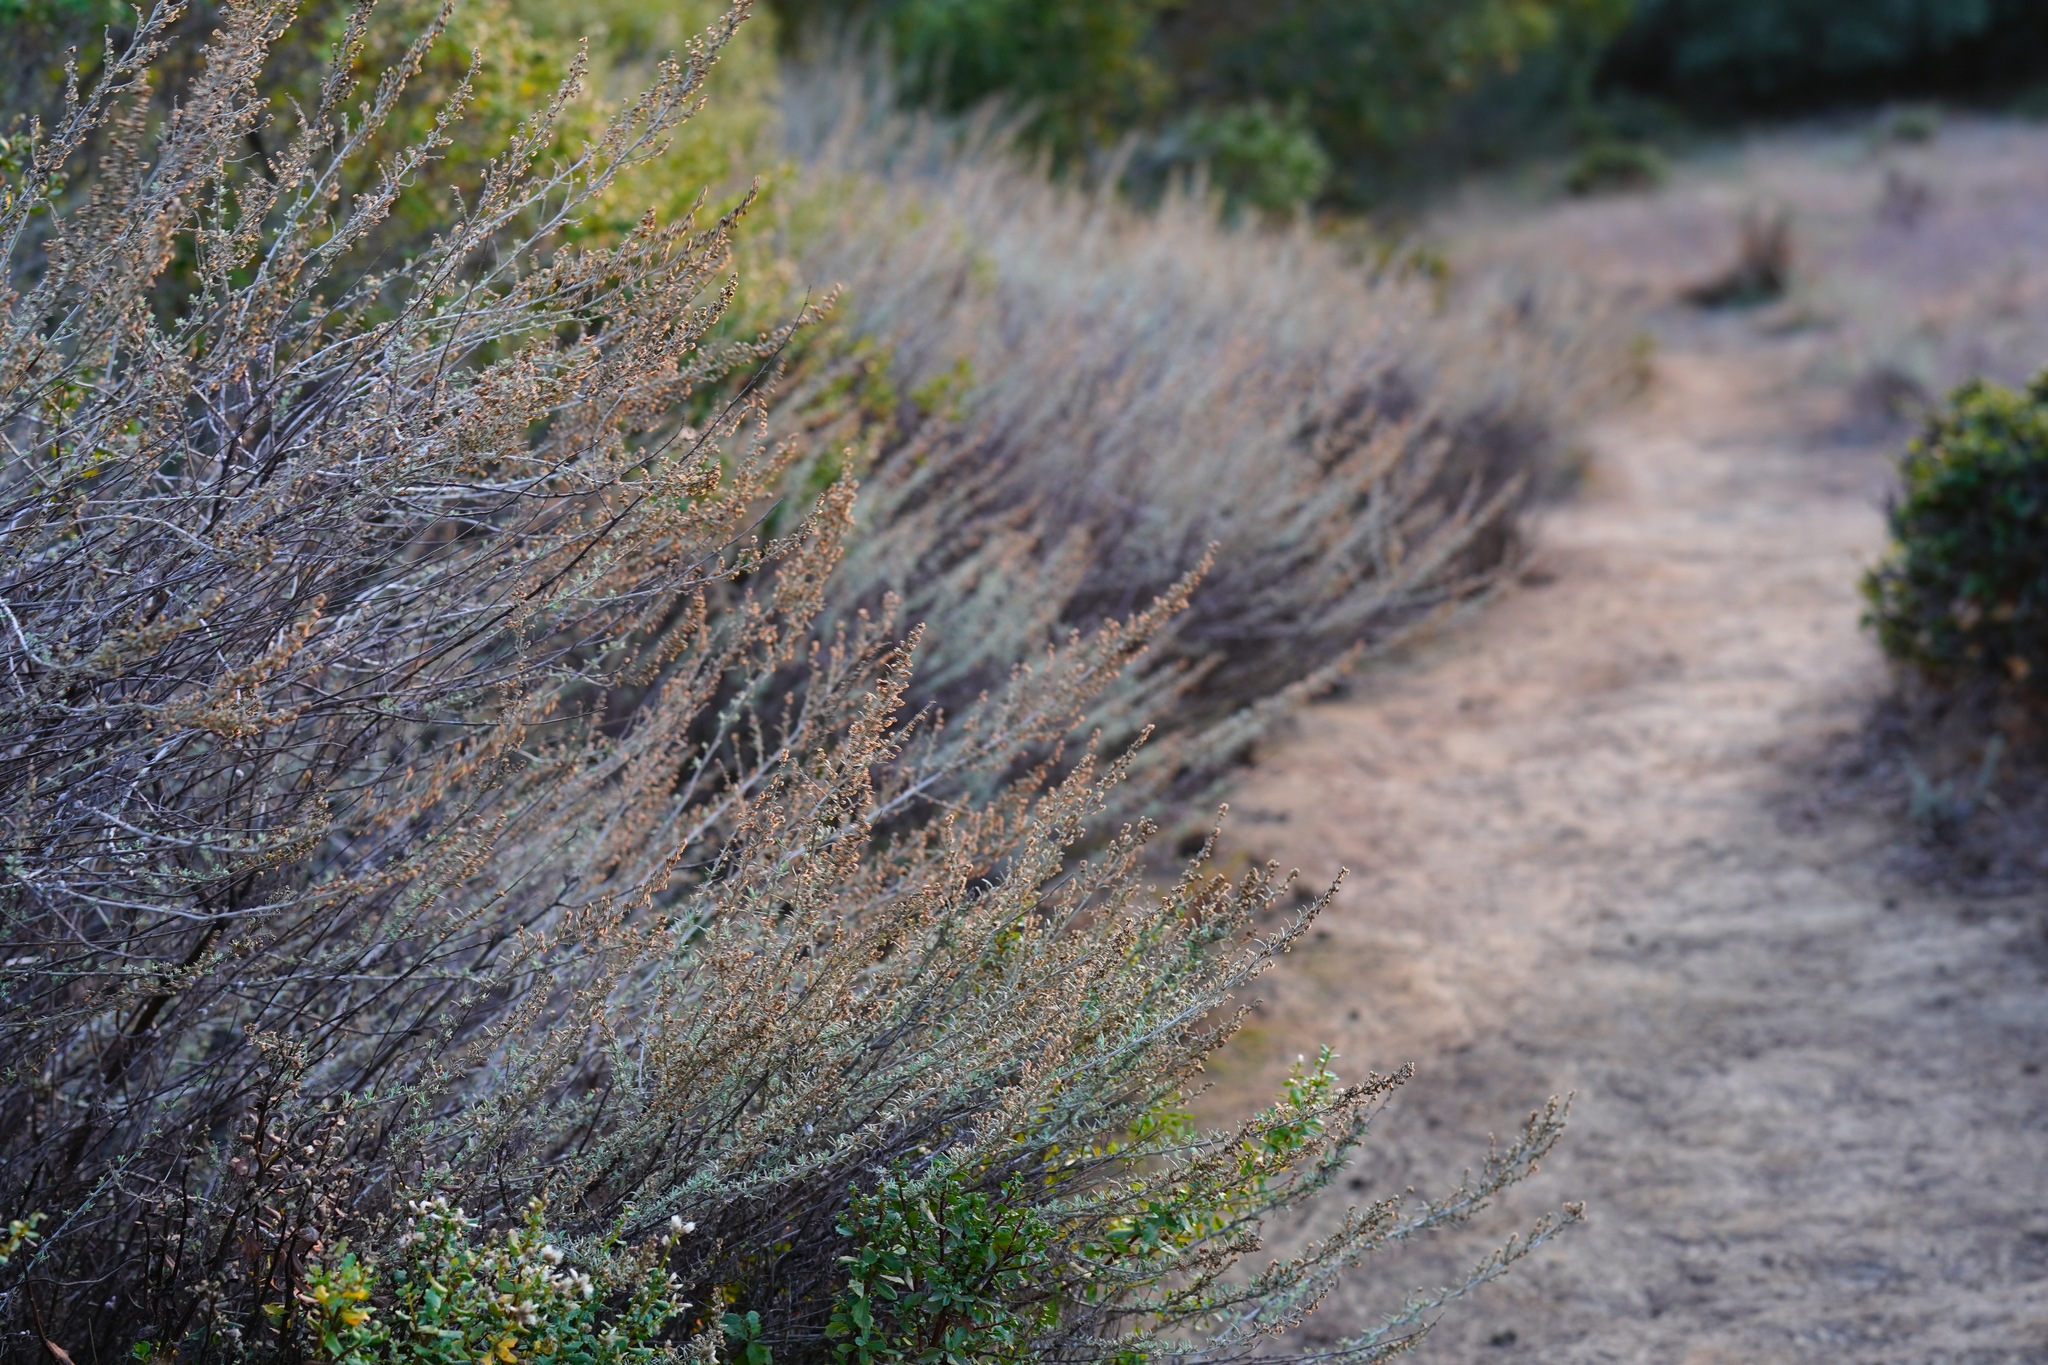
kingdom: Plantae
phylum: Tracheophyta
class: Magnoliopsida
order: Asterales
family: Asteraceae
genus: Artemisia
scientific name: Artemisia californica
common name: California sagebrush
